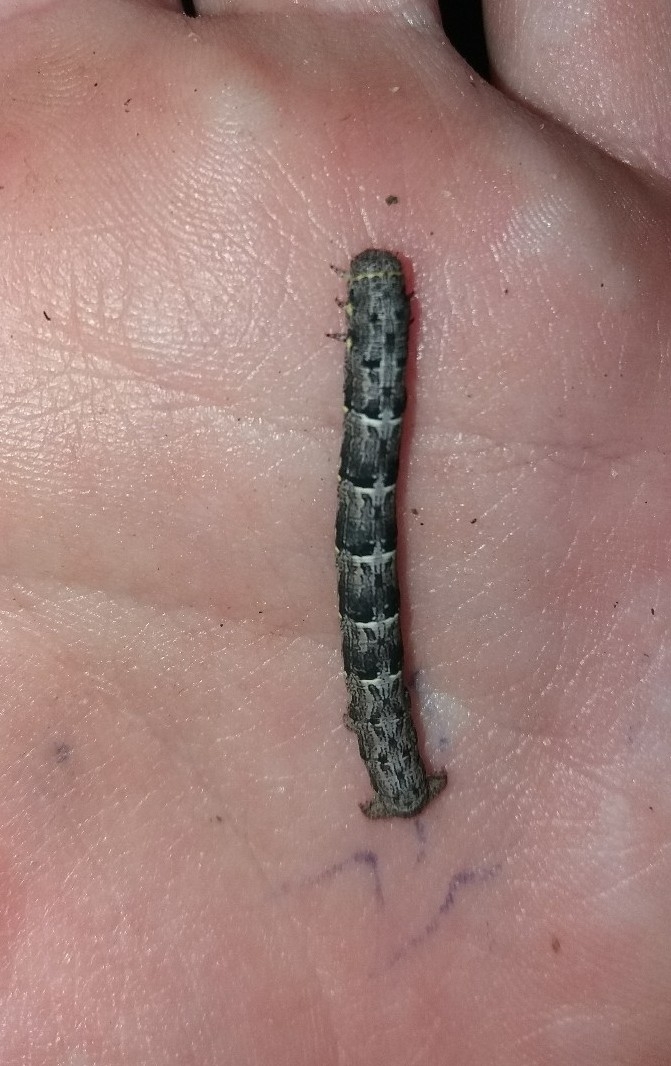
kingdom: Animalia
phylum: Arthropoda
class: Insecta
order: Lepidoptera
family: Geometridae
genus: Lycia
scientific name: Lycia pomonaria
